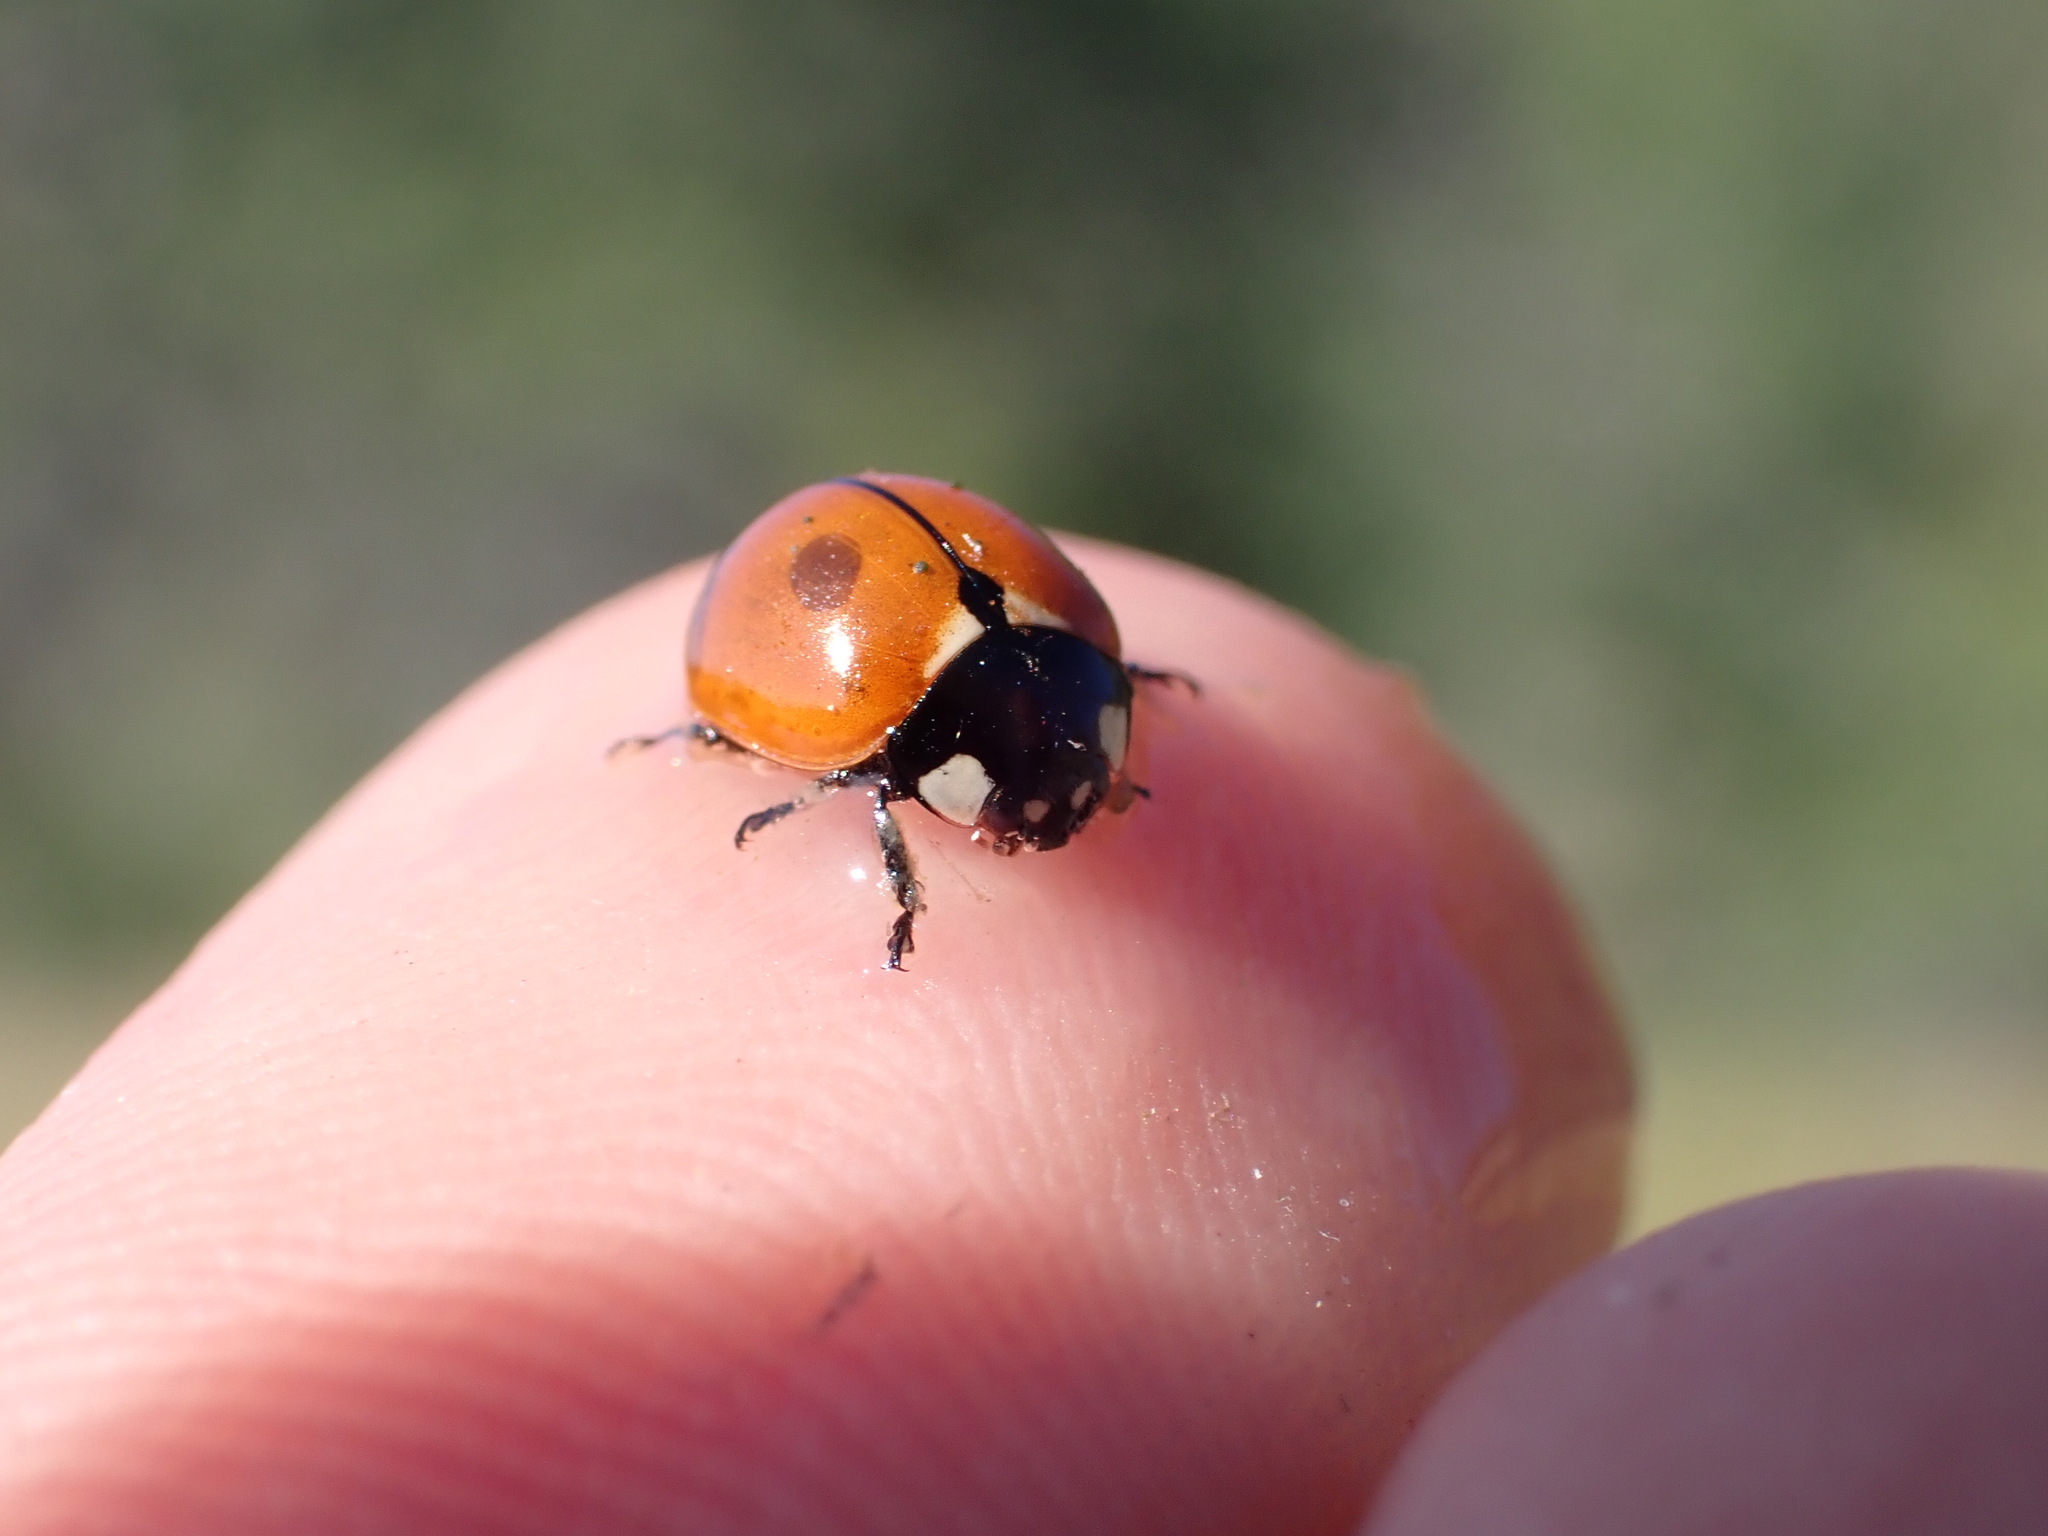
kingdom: Animalia
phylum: Arthropoda
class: Insecta
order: Coleoptera
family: Coccinellidae
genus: Coccinella
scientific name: Coccinella californica
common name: Lady beetle
